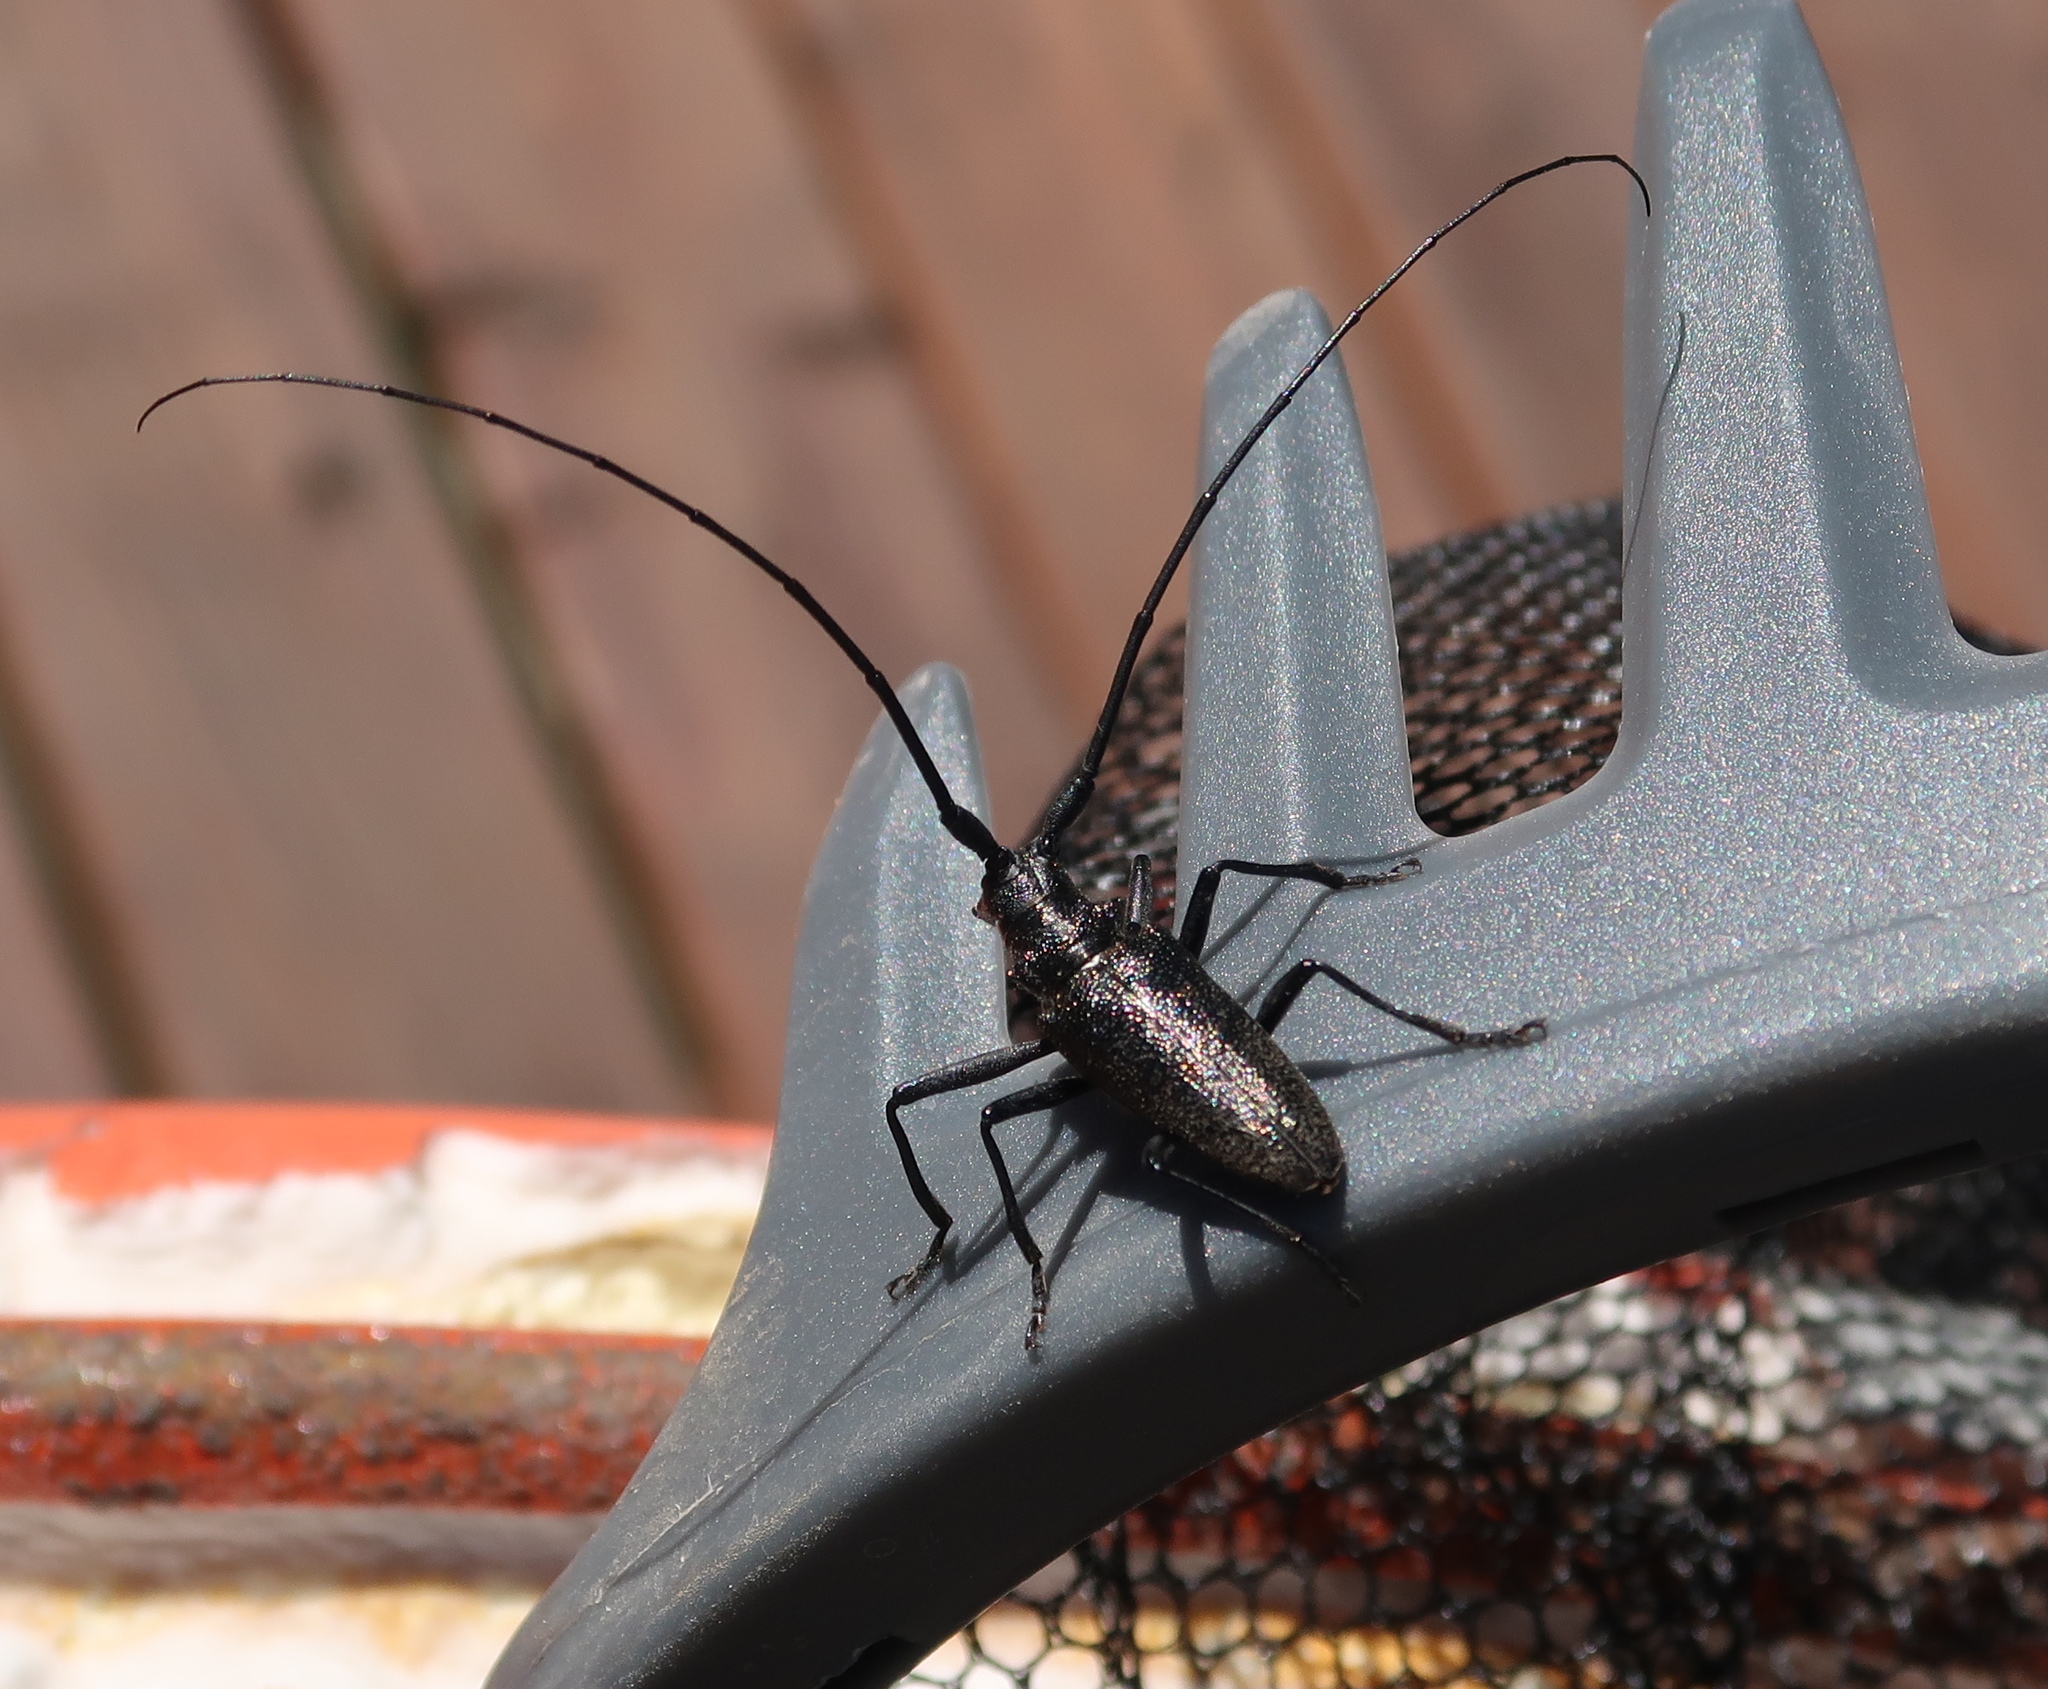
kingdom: Animalia
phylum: Arthropoda
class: Insecta
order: Coleoptera
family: Cerambycidae
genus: Monochamus
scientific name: Monochamus scutellatus
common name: White-spotted sawyer beetle
